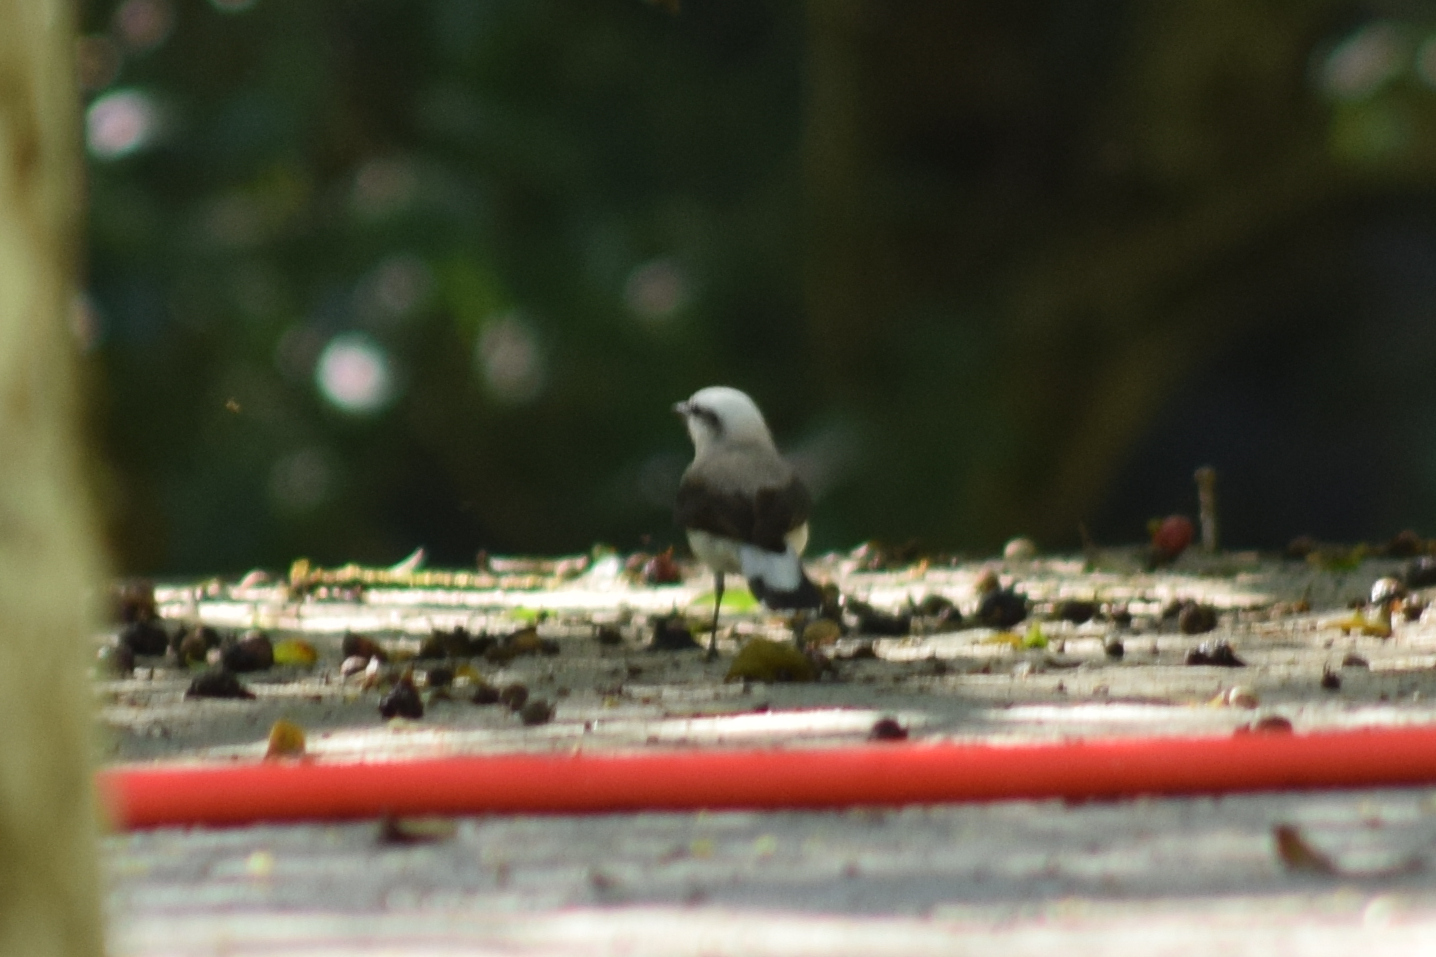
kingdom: Animalia
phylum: Chordata
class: Aves
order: Passeriformes
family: Tyrannidae
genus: Fluvicola
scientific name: Fluvicola nengeta
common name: Masked water tyrant
